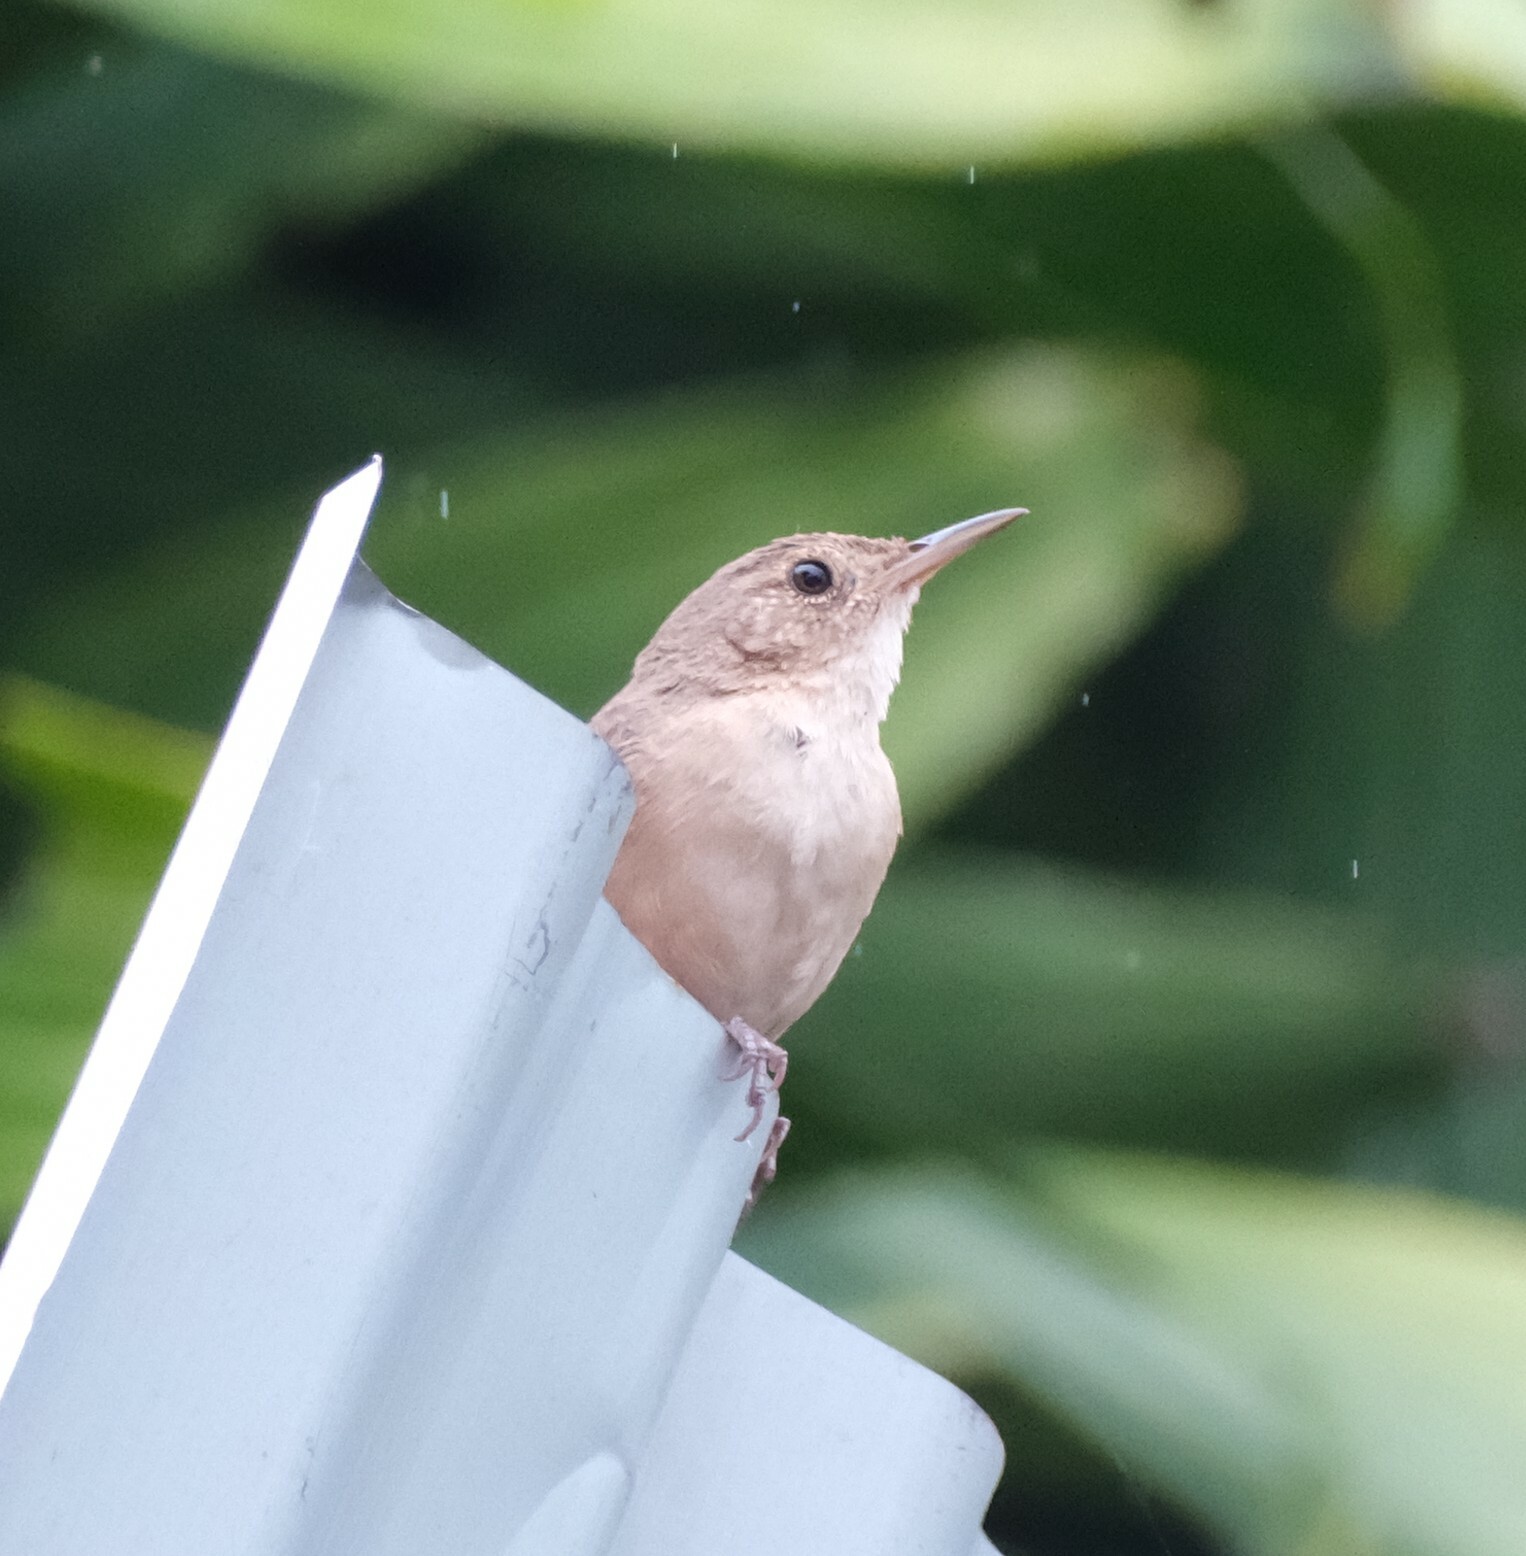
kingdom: Animalia
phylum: Chordata
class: Aves
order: Passeriformes
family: Troglodytidae
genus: Troglodytes
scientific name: Troglodytes aedon
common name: House wren
